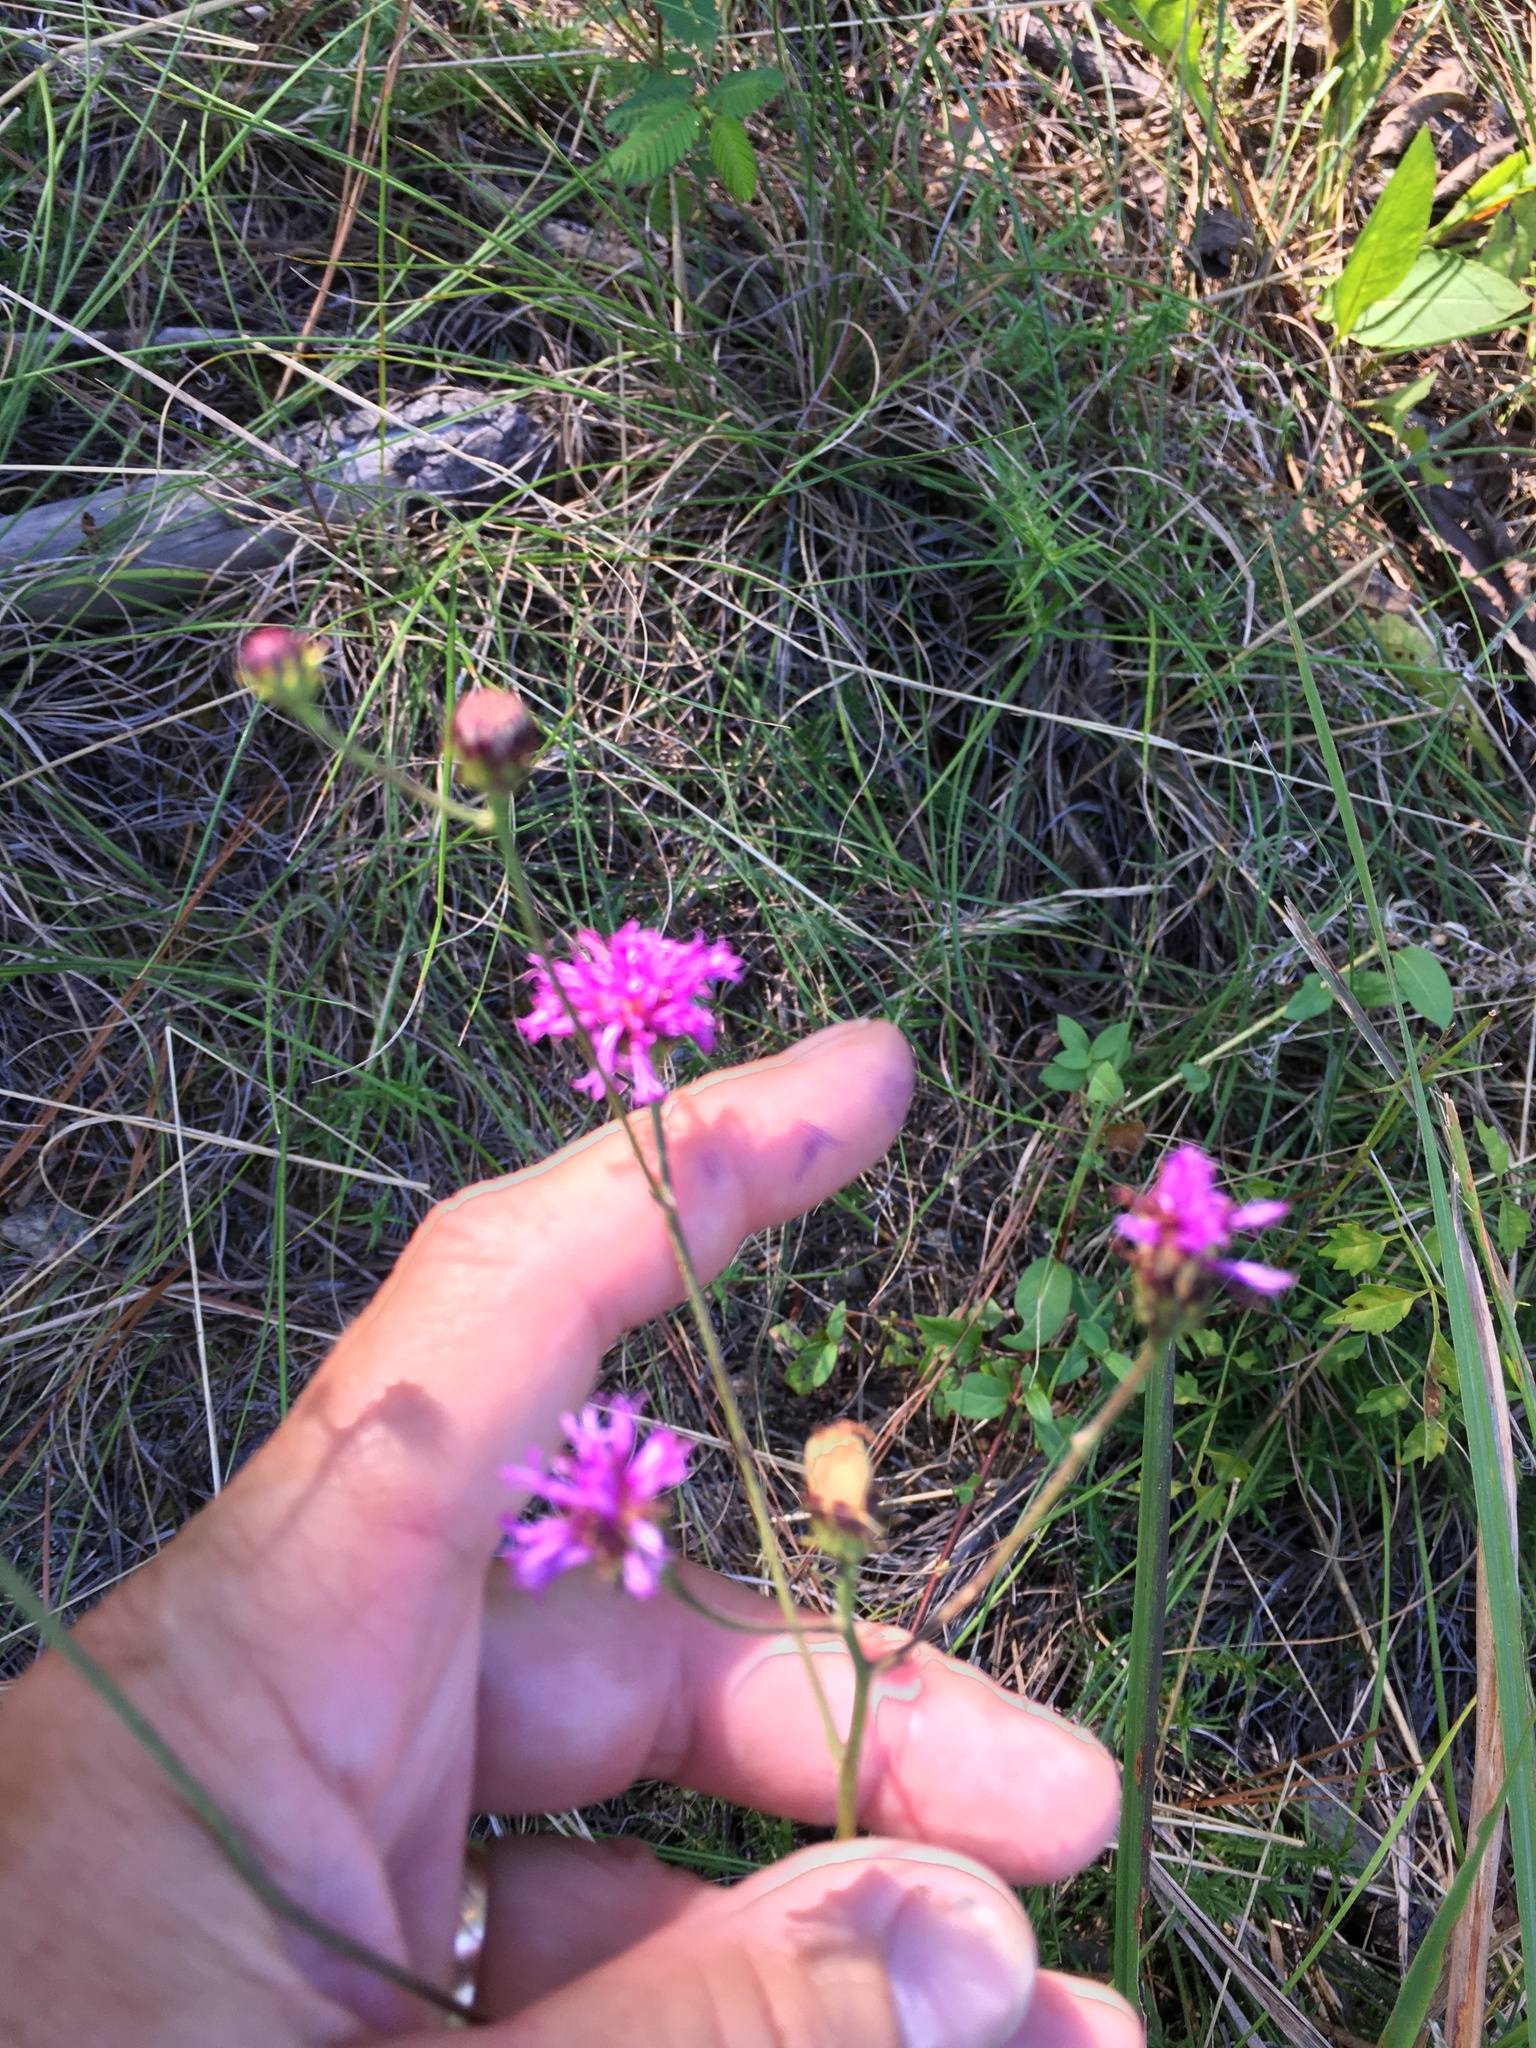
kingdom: Plantae
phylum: Tracheophyta
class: Magnoliopsida
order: Asterales
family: Asteraceae
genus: Vernonia
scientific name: Vernonia acaulis
